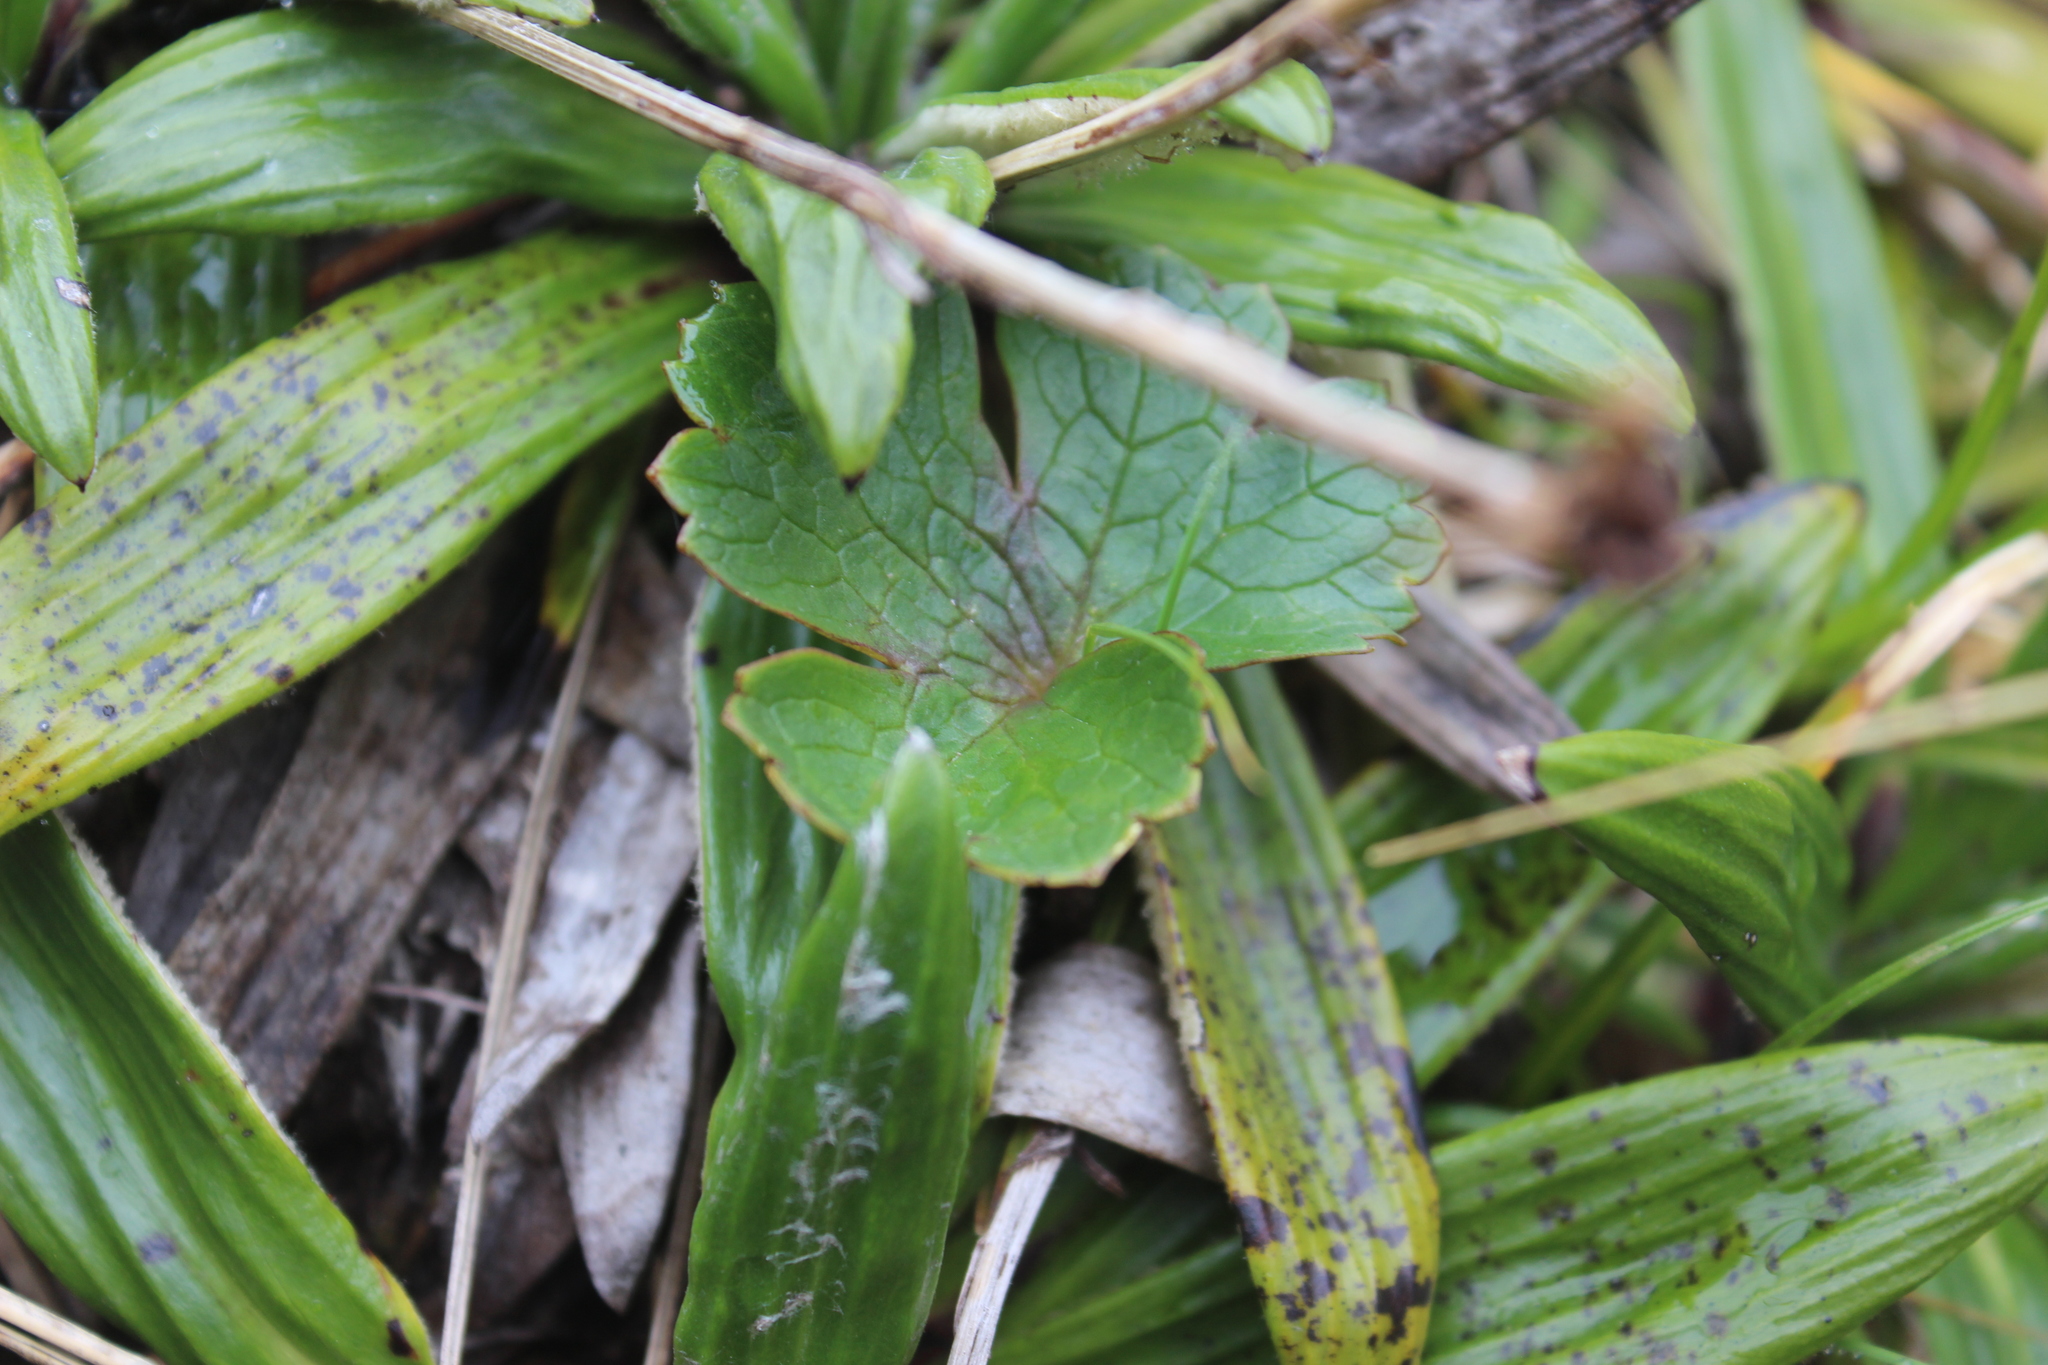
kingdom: Plantae
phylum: Tracheophyta
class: Magnoliopsida
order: Ranunculales
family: Ranunculaceae
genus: Ranunculus
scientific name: Ranunculus verticillatus
